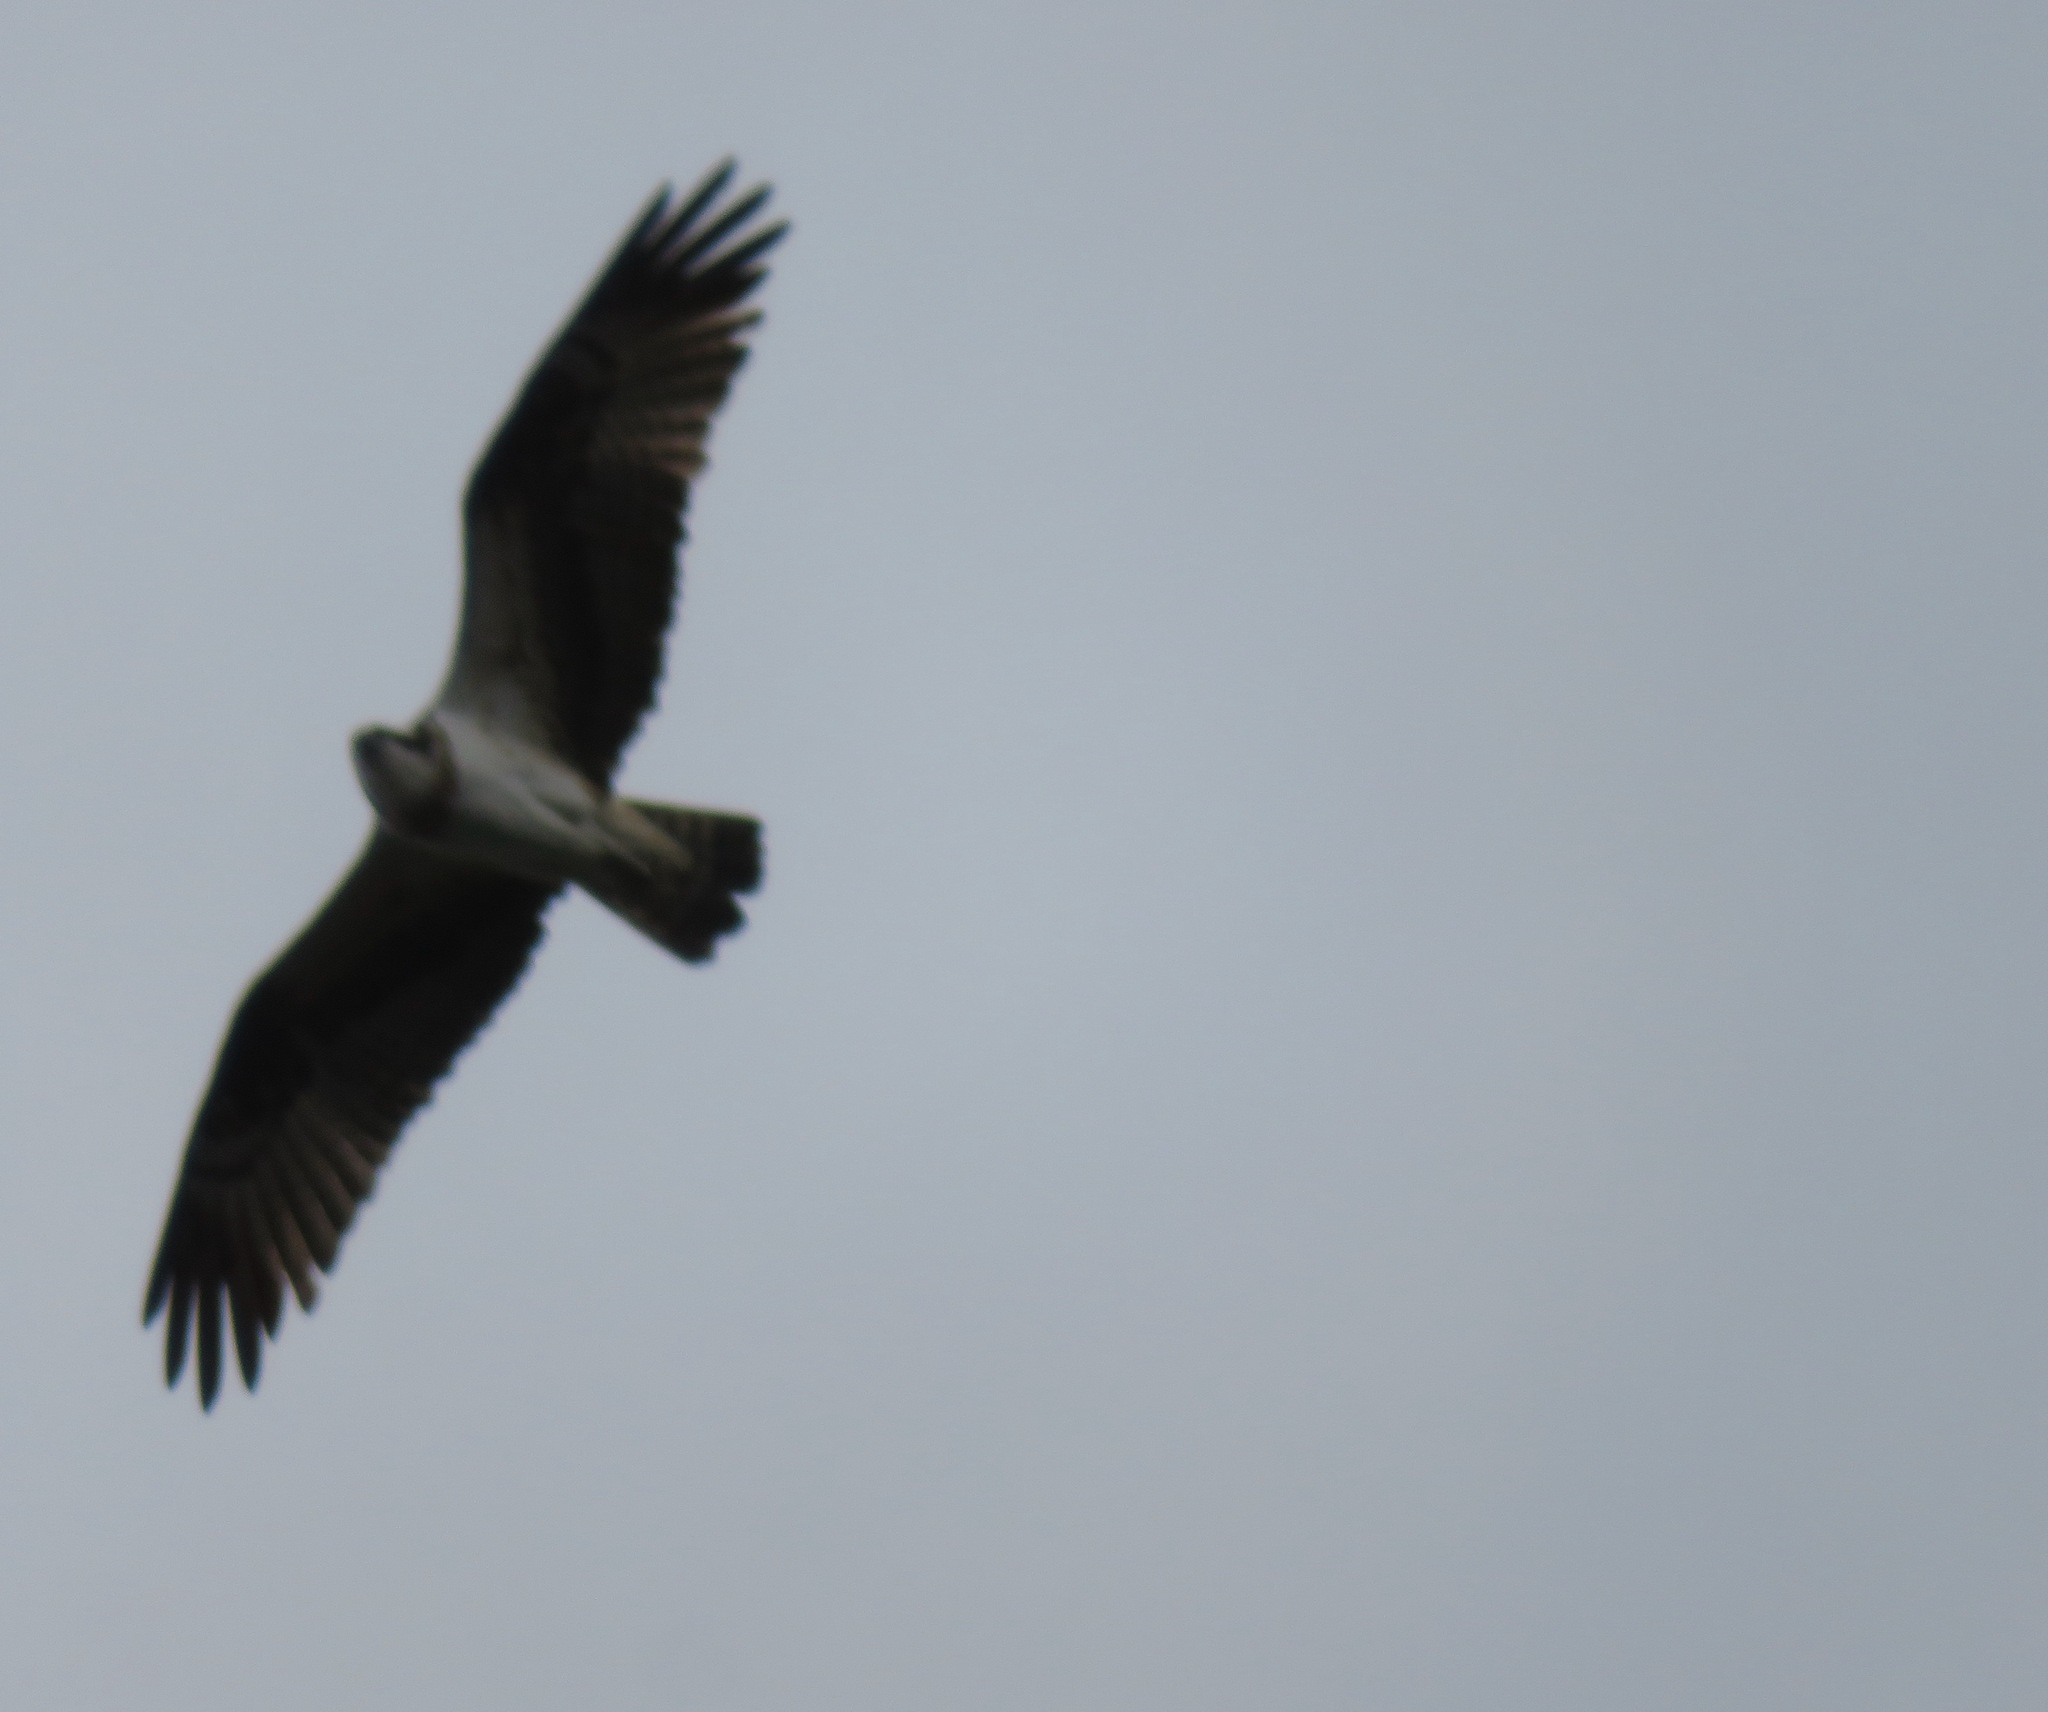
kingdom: Animalia
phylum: Chordata
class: Aves
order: Accipitriformes
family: Pandionidae
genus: Pandion
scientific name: Pandion haliaetus
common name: Osprey
